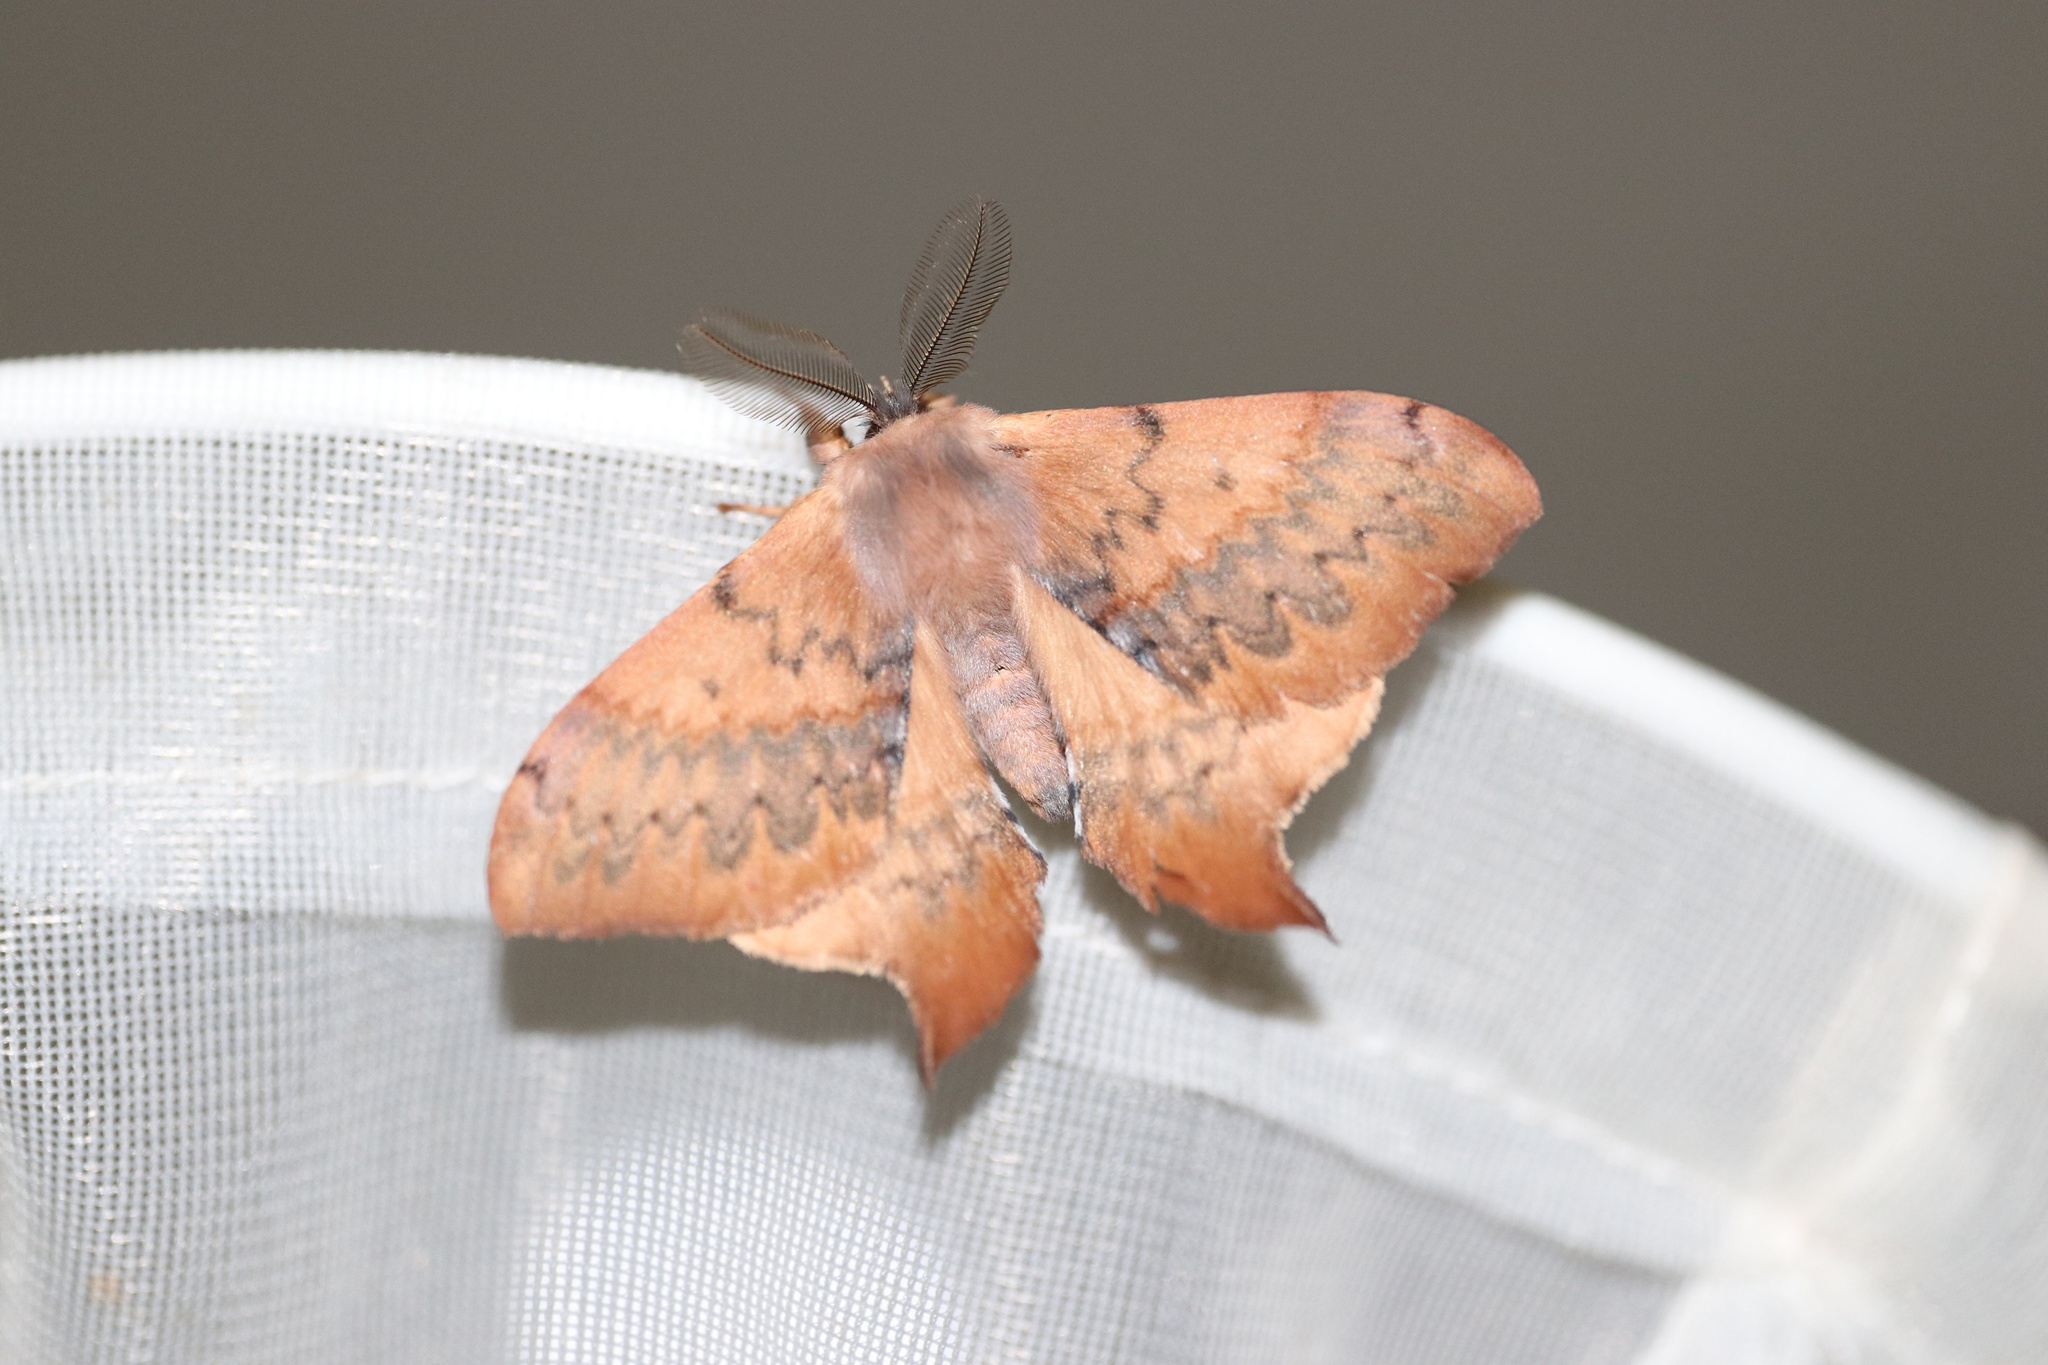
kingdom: Animalia
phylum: Arthropoda
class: Insecta
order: Lepidoptera
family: Saturniidae
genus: Cercophana
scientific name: Cercophana frauenfeldi
